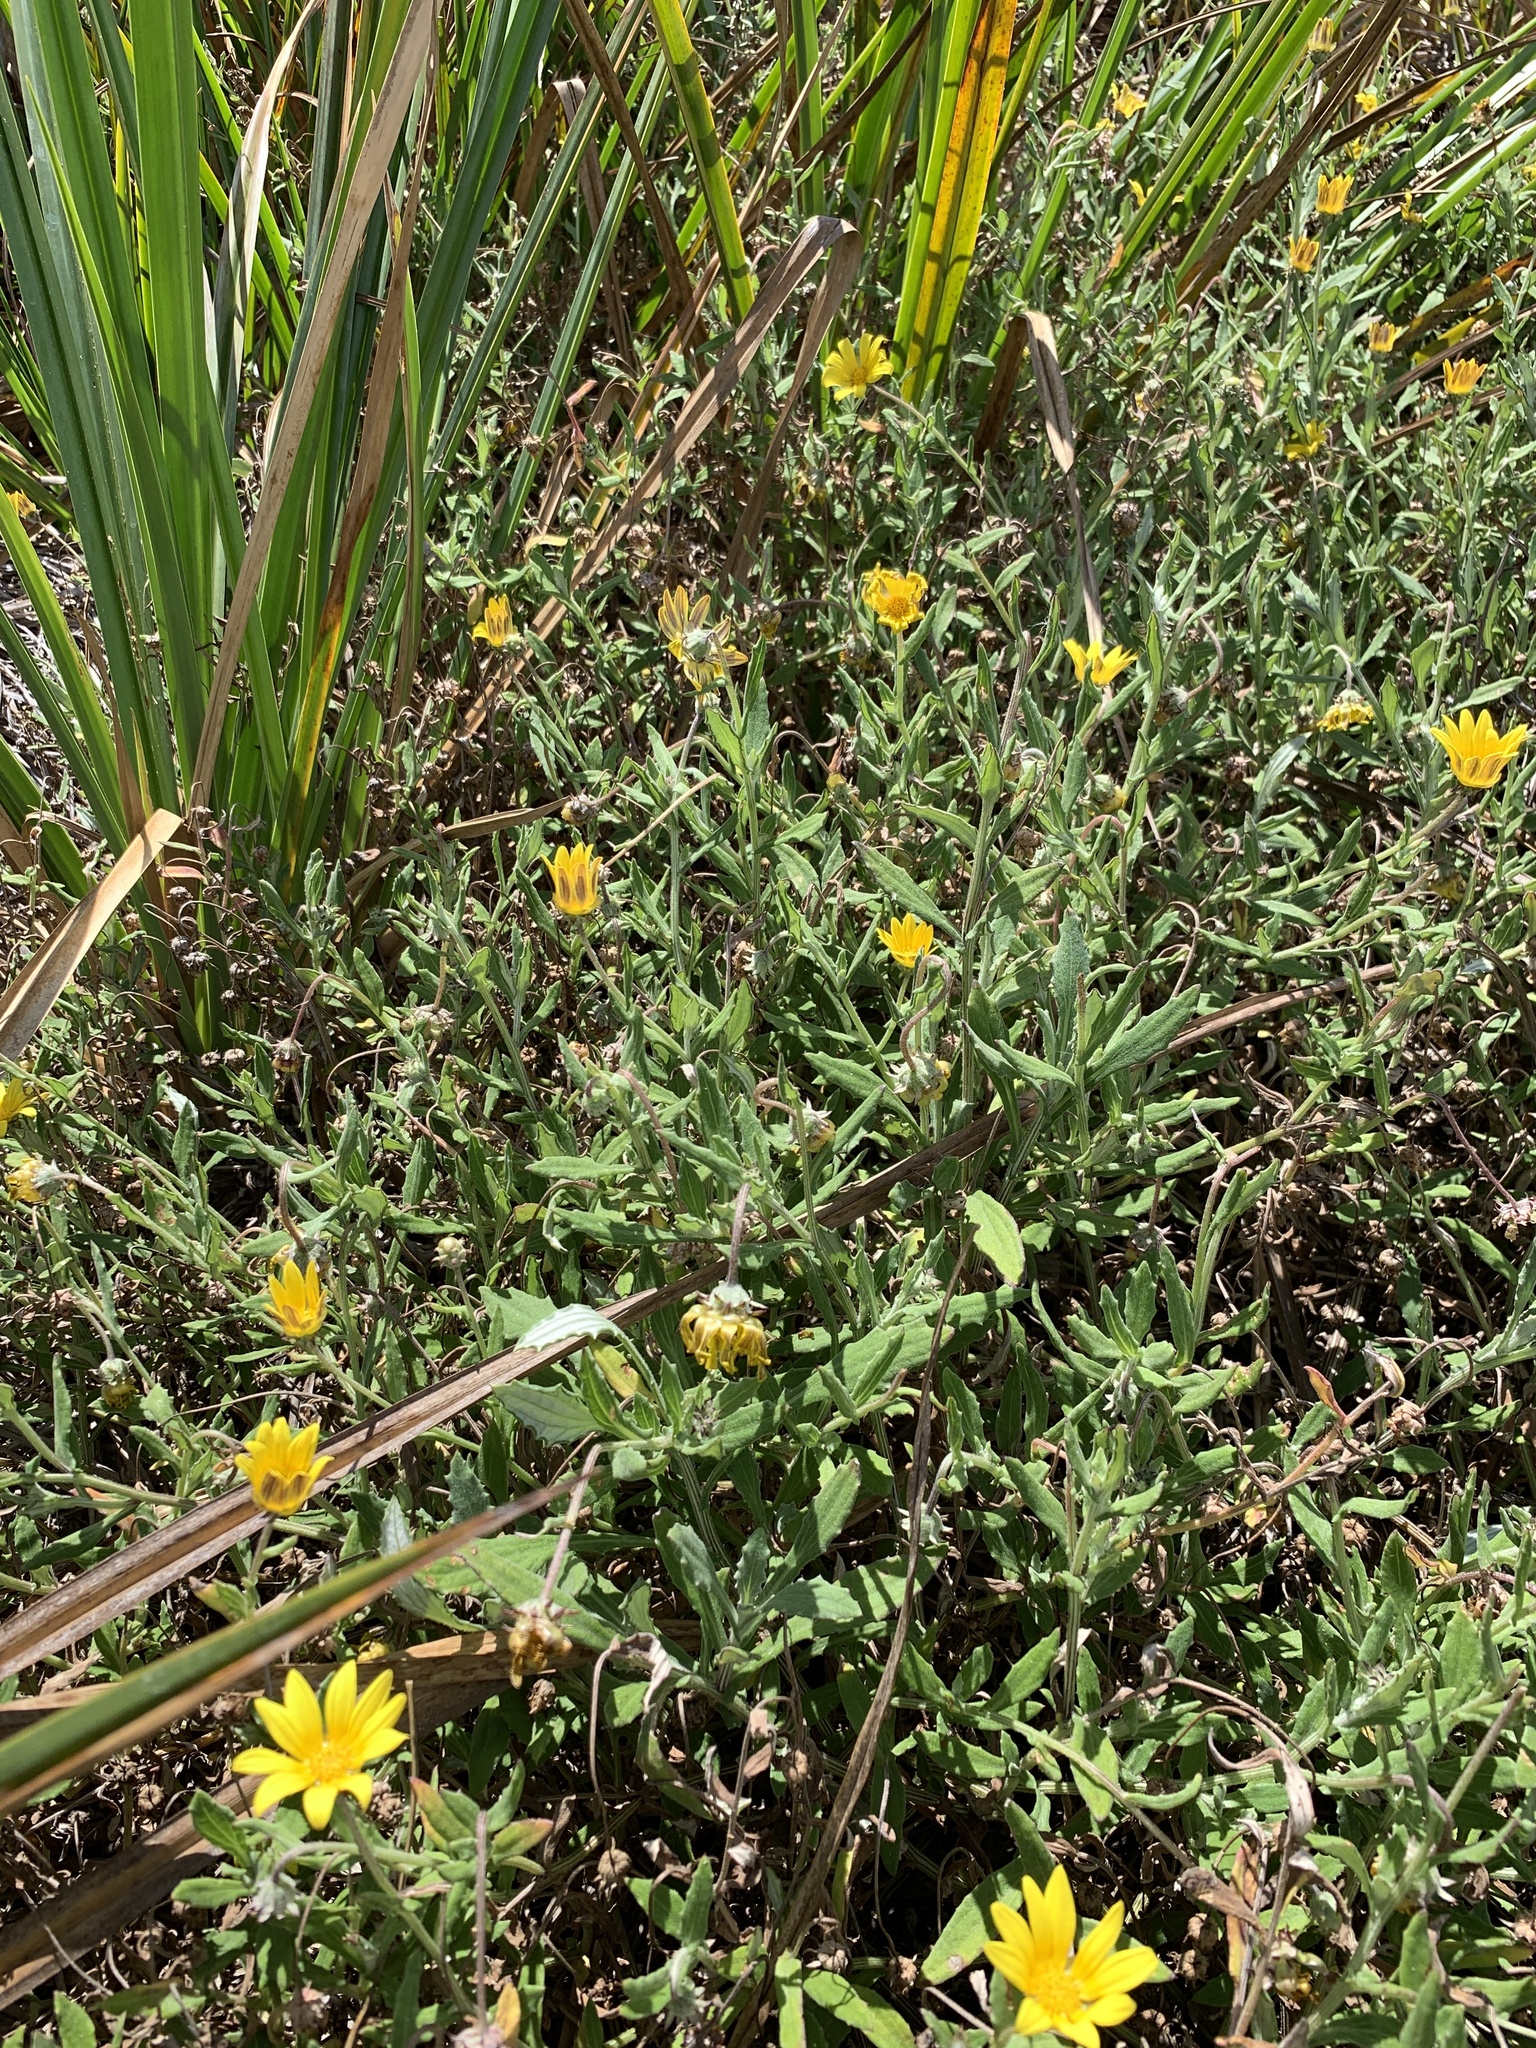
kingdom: Plantae
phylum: Tracheophyta
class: Magnoliopsida
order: Asterales
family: Asteraceae
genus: Arctotis
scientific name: Arctotis scabra
